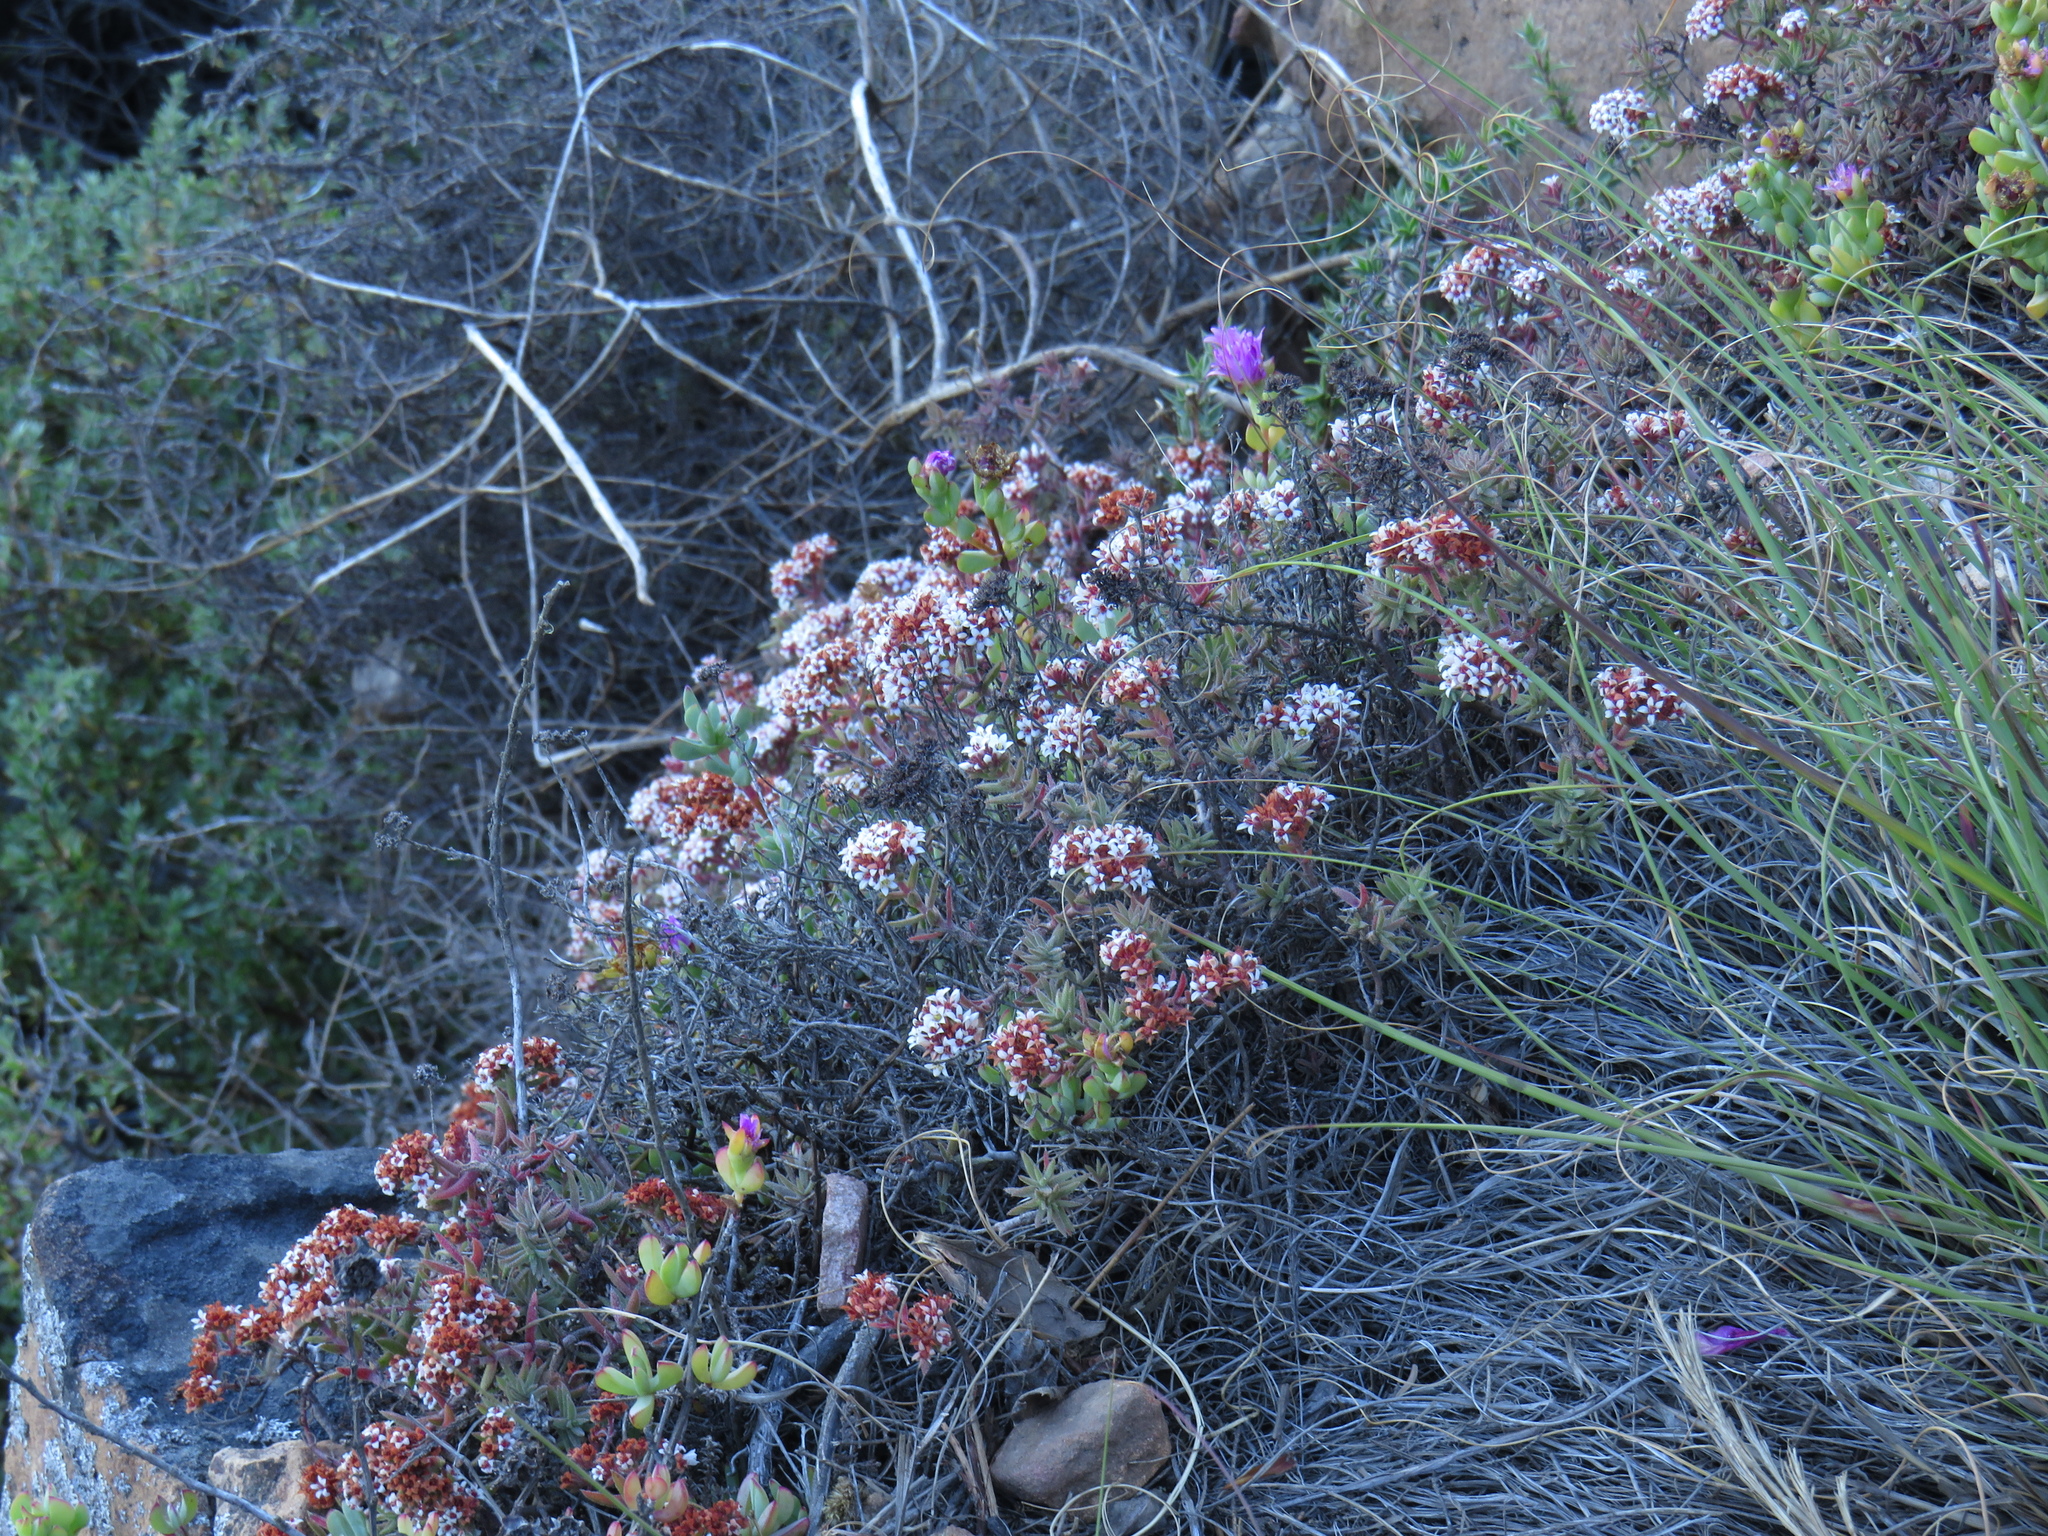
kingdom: Plantae
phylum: Tracheophyta
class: Magnoliopsida
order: Saxifragales
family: Crassulaceae
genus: Crassula
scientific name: Crassula pruinosa
